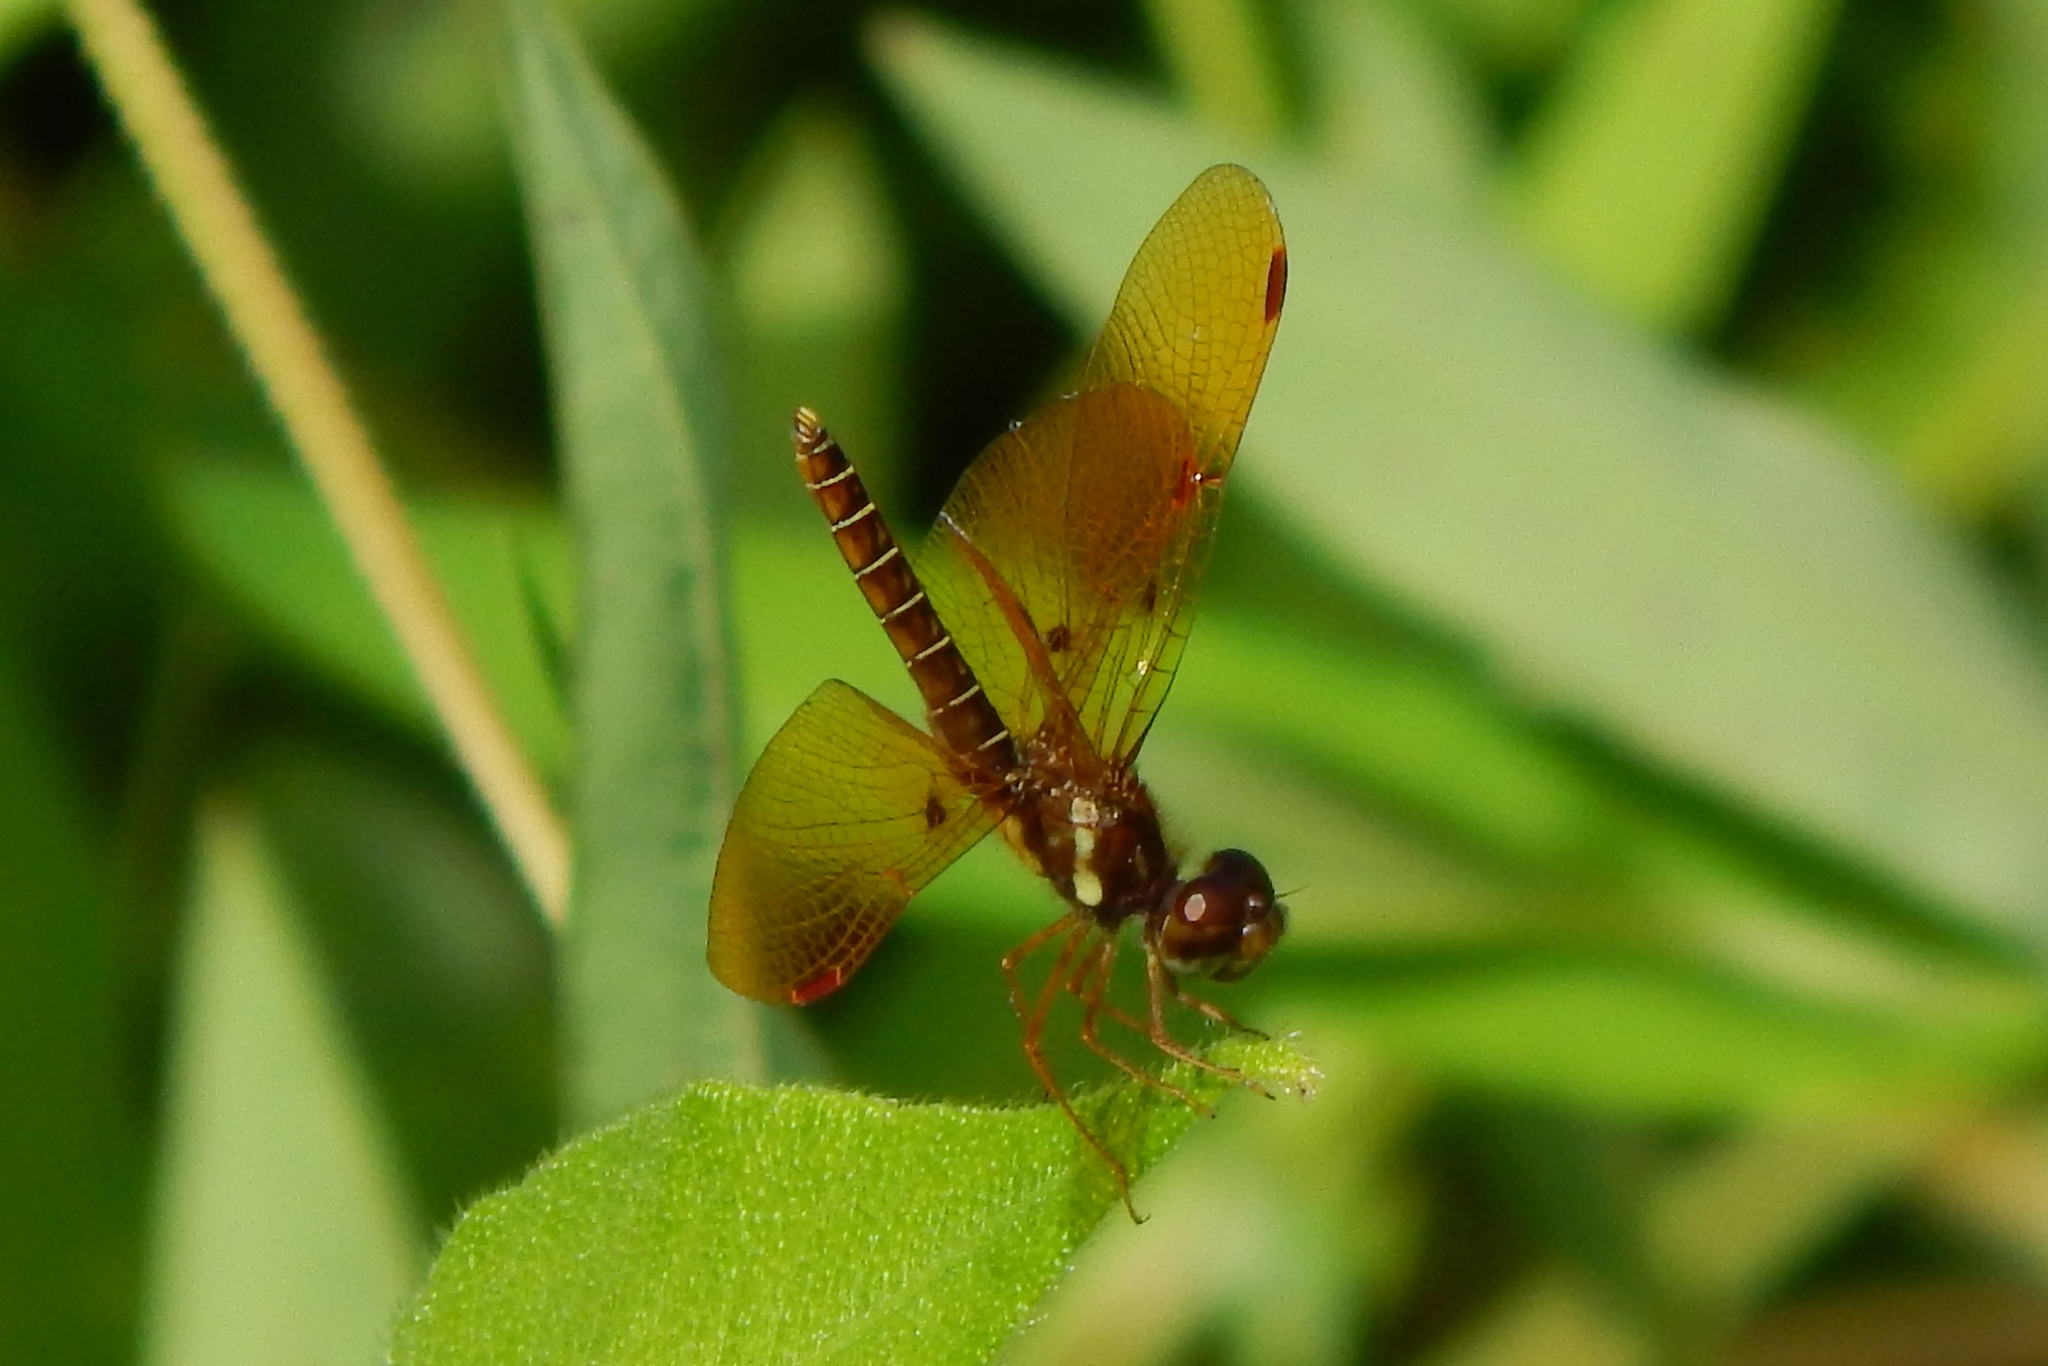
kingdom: Animalia
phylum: Arthropoda
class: Insecta
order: Odonata
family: Libellulidae
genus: Perithemis
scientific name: Perithemis tenera
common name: Eastern amberwing
